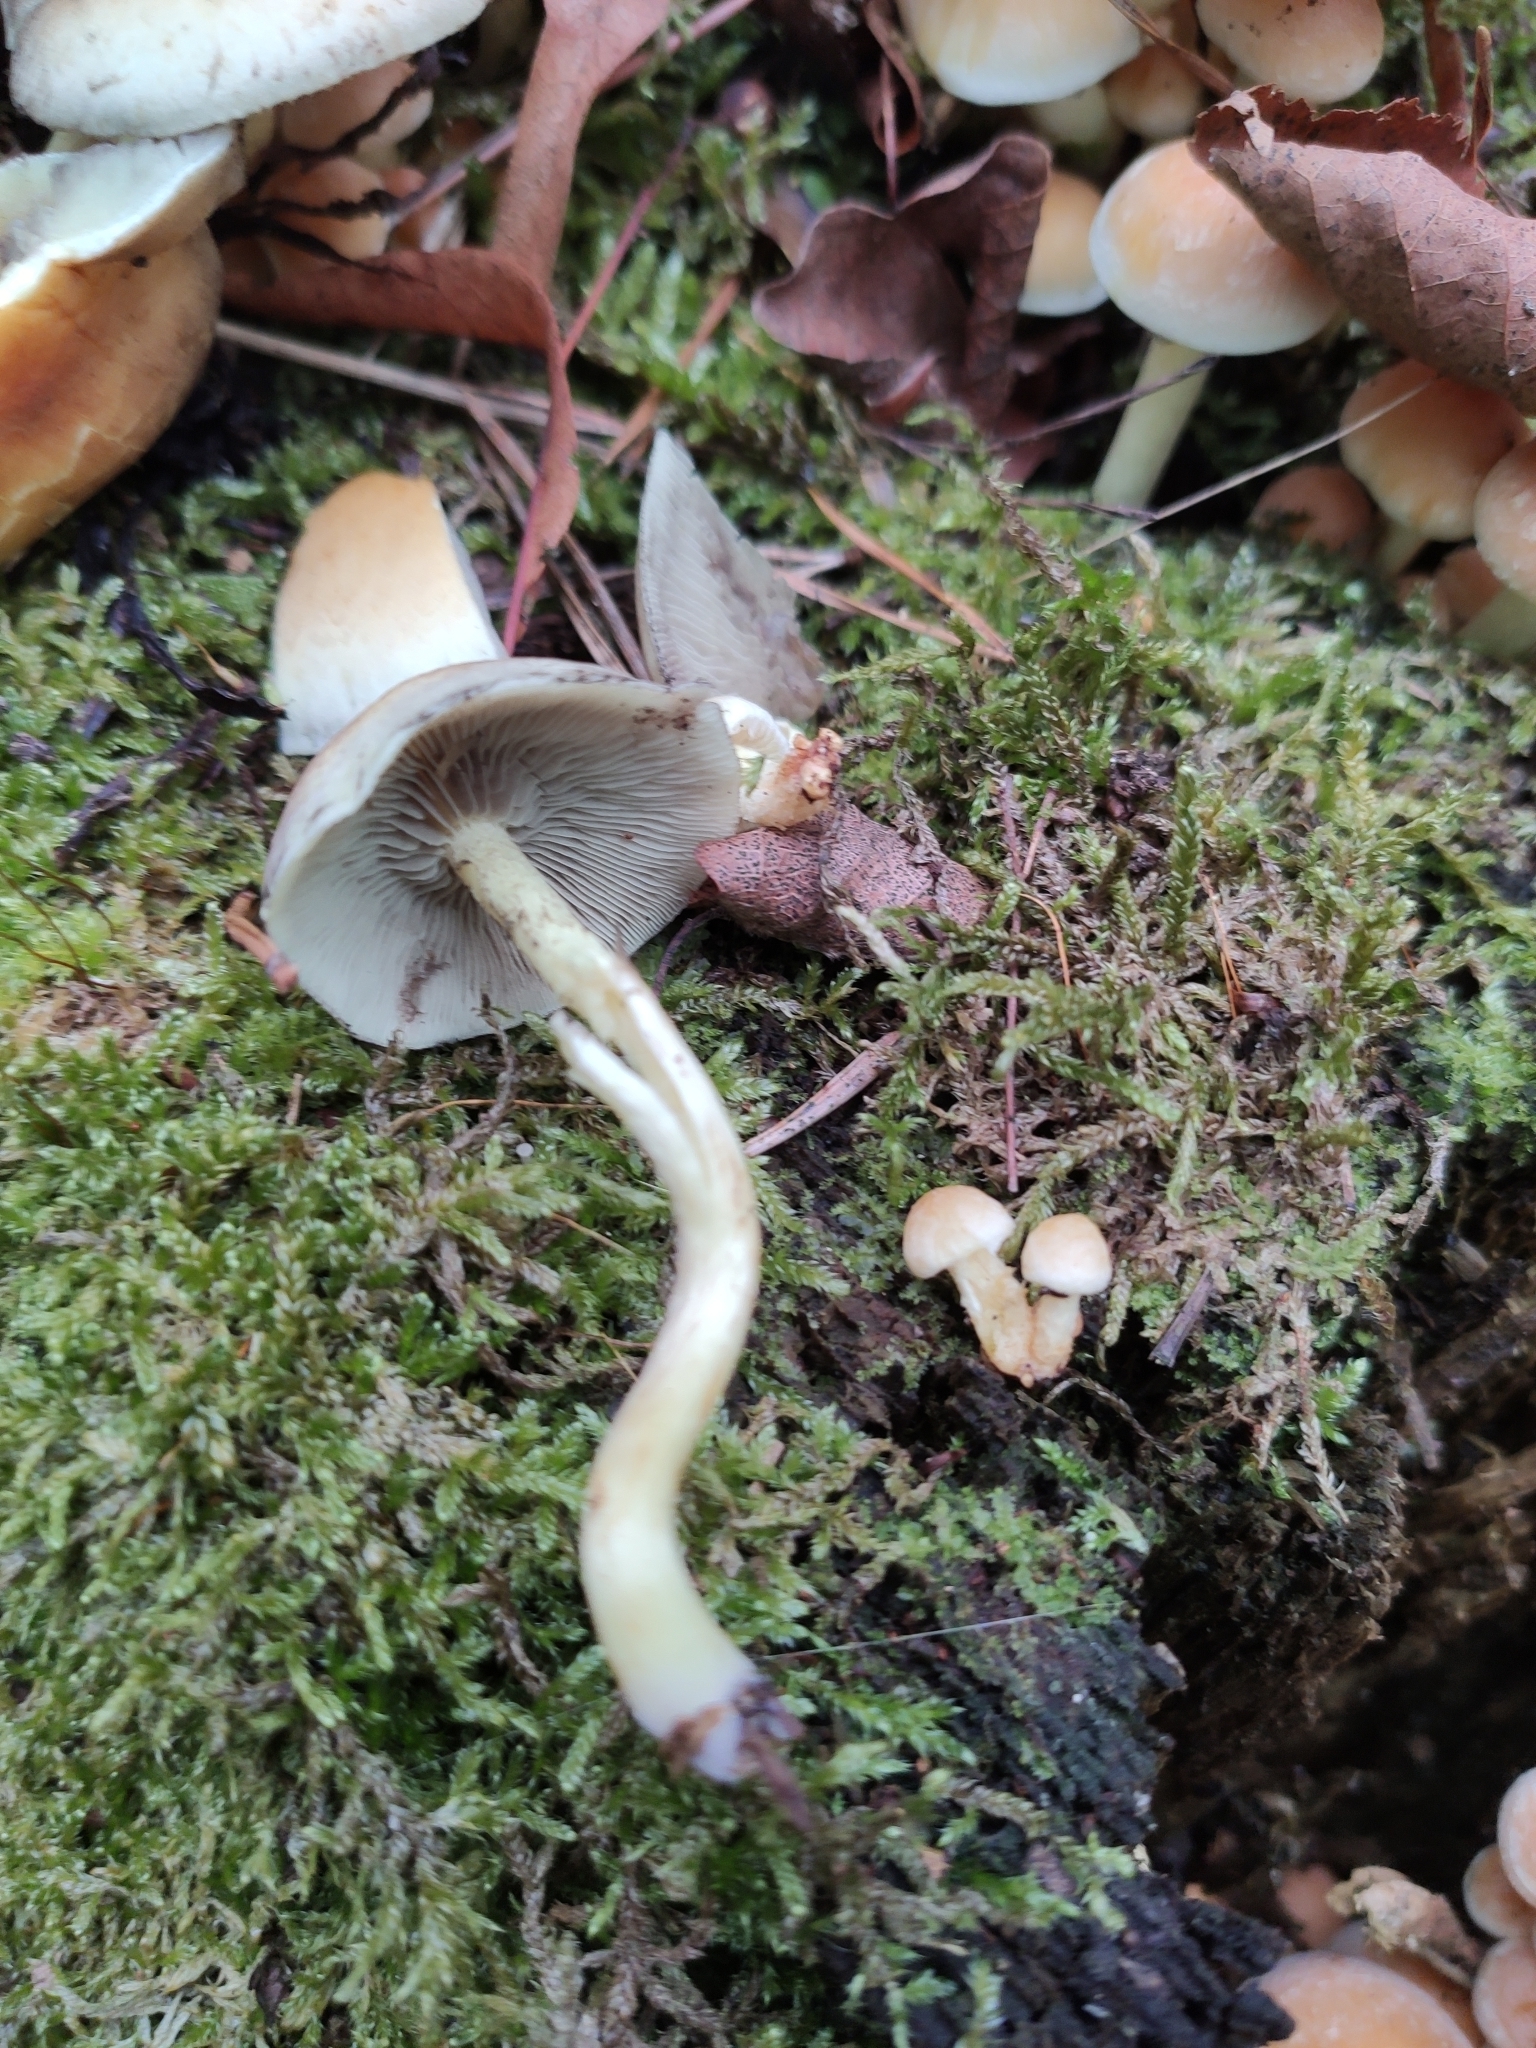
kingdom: Fungi
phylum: Basidiomycota
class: Agaricomycetes
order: Agaricales
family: Strophariaceae
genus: Hypholoma
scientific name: Hypholoma fasciculare
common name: Sulphur tuft
